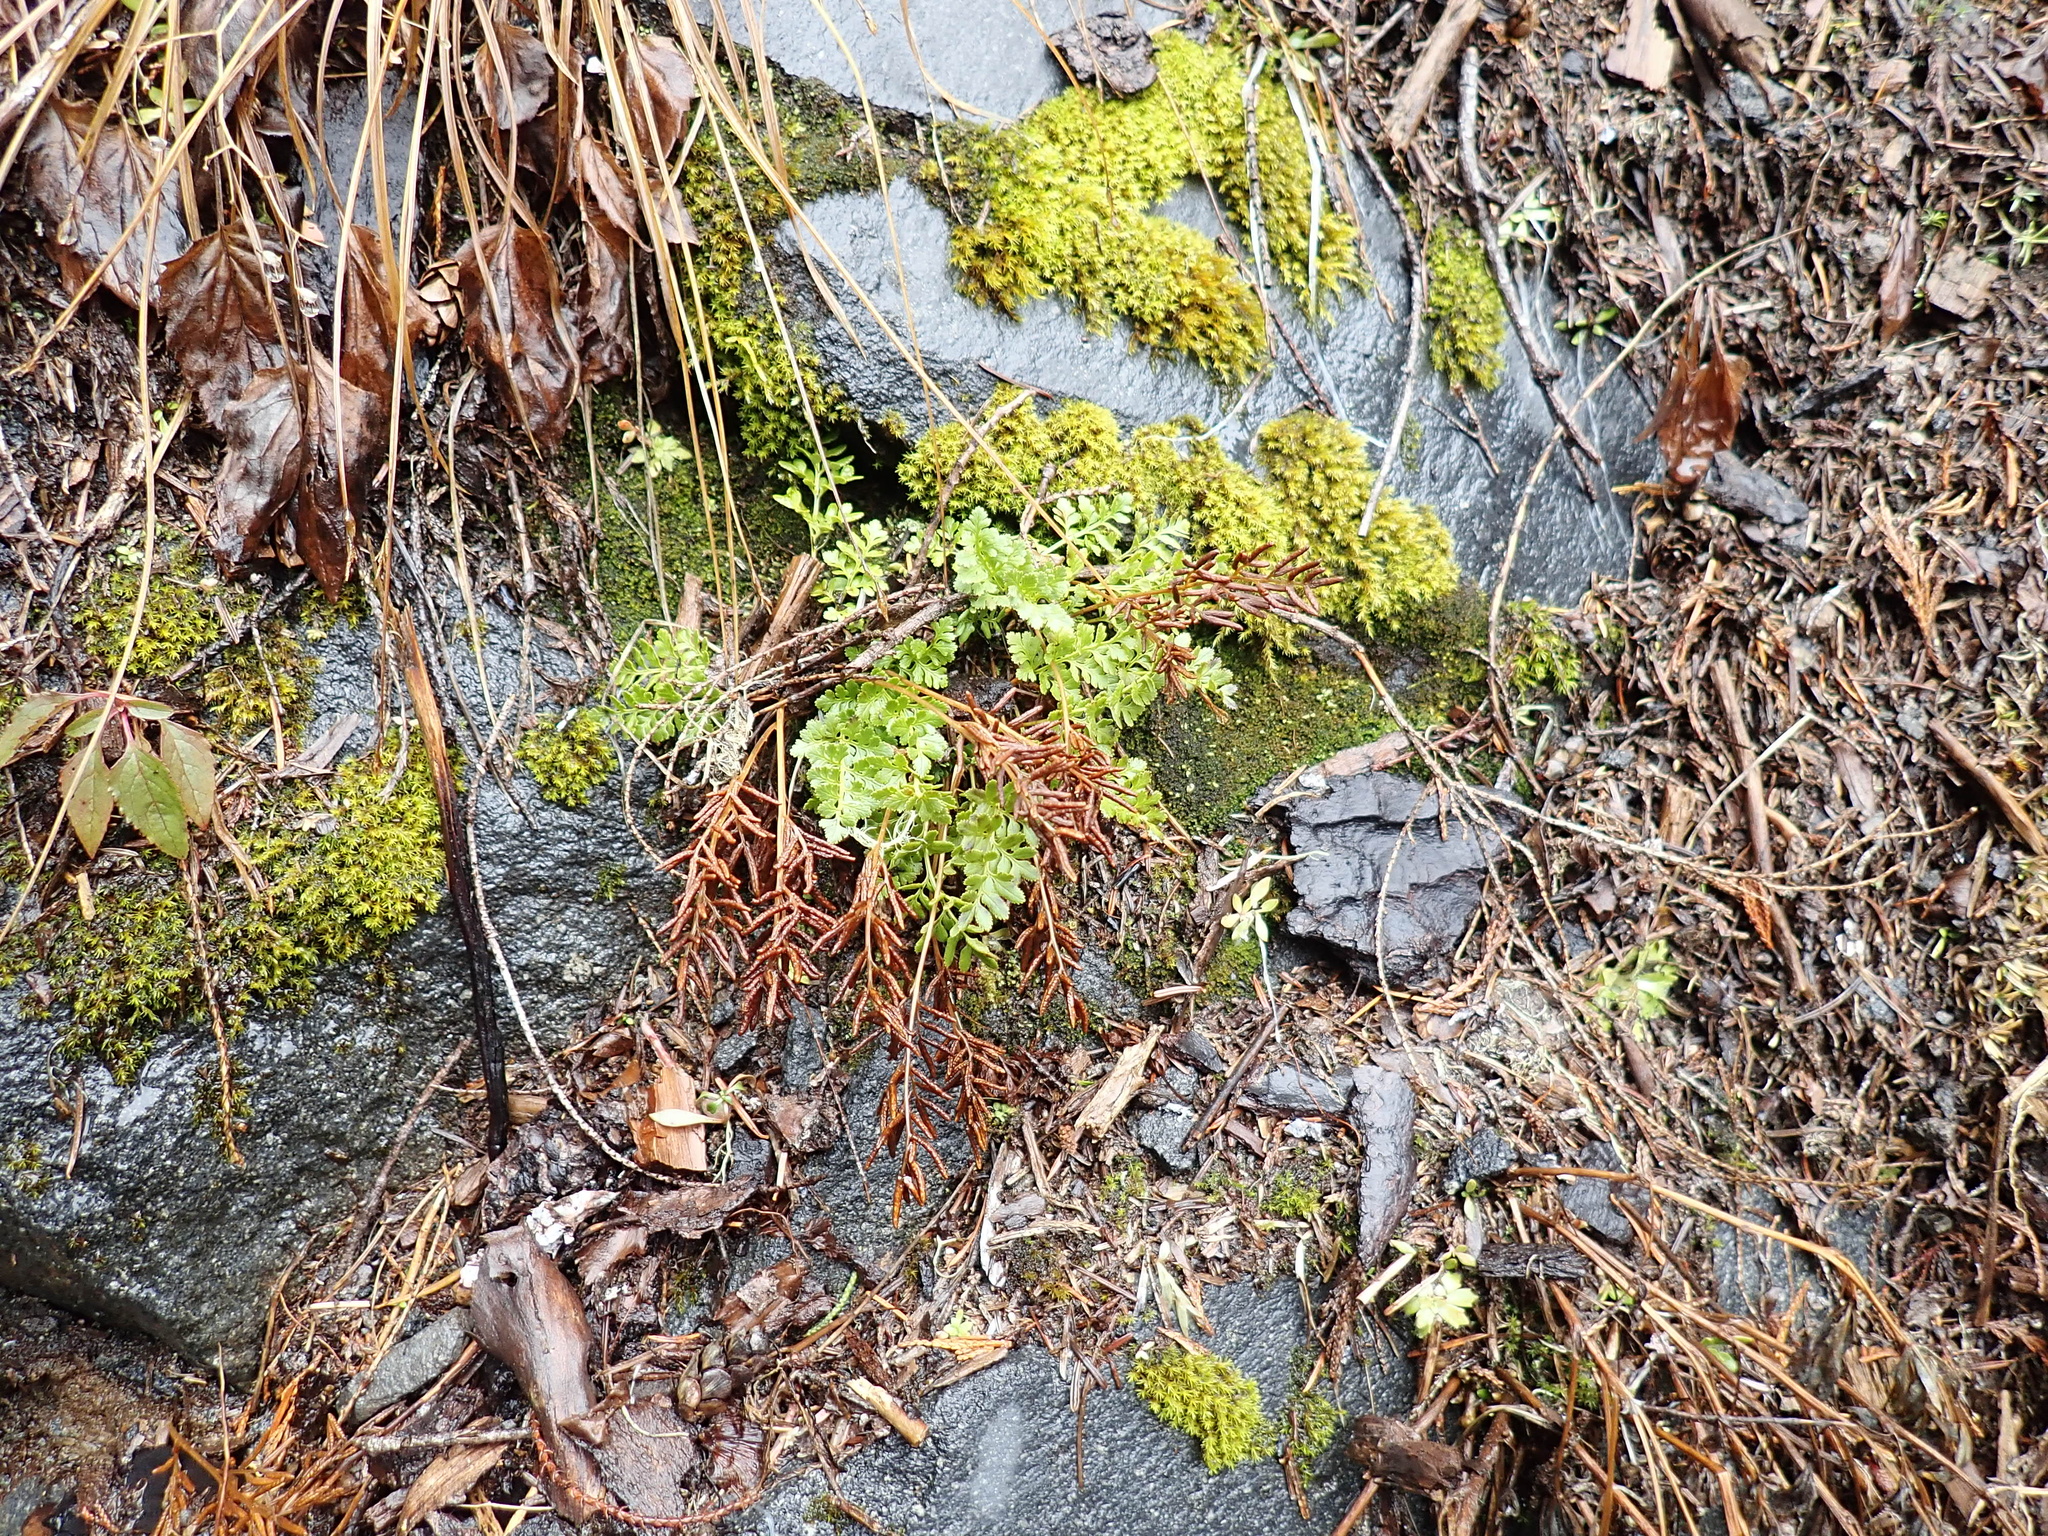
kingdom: Plantae
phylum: Tracheophyta
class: Polypodiopsida
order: Polypodiales
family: Pteridaceae
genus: Cryptogramma
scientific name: Cryptogramma acrostichoides
